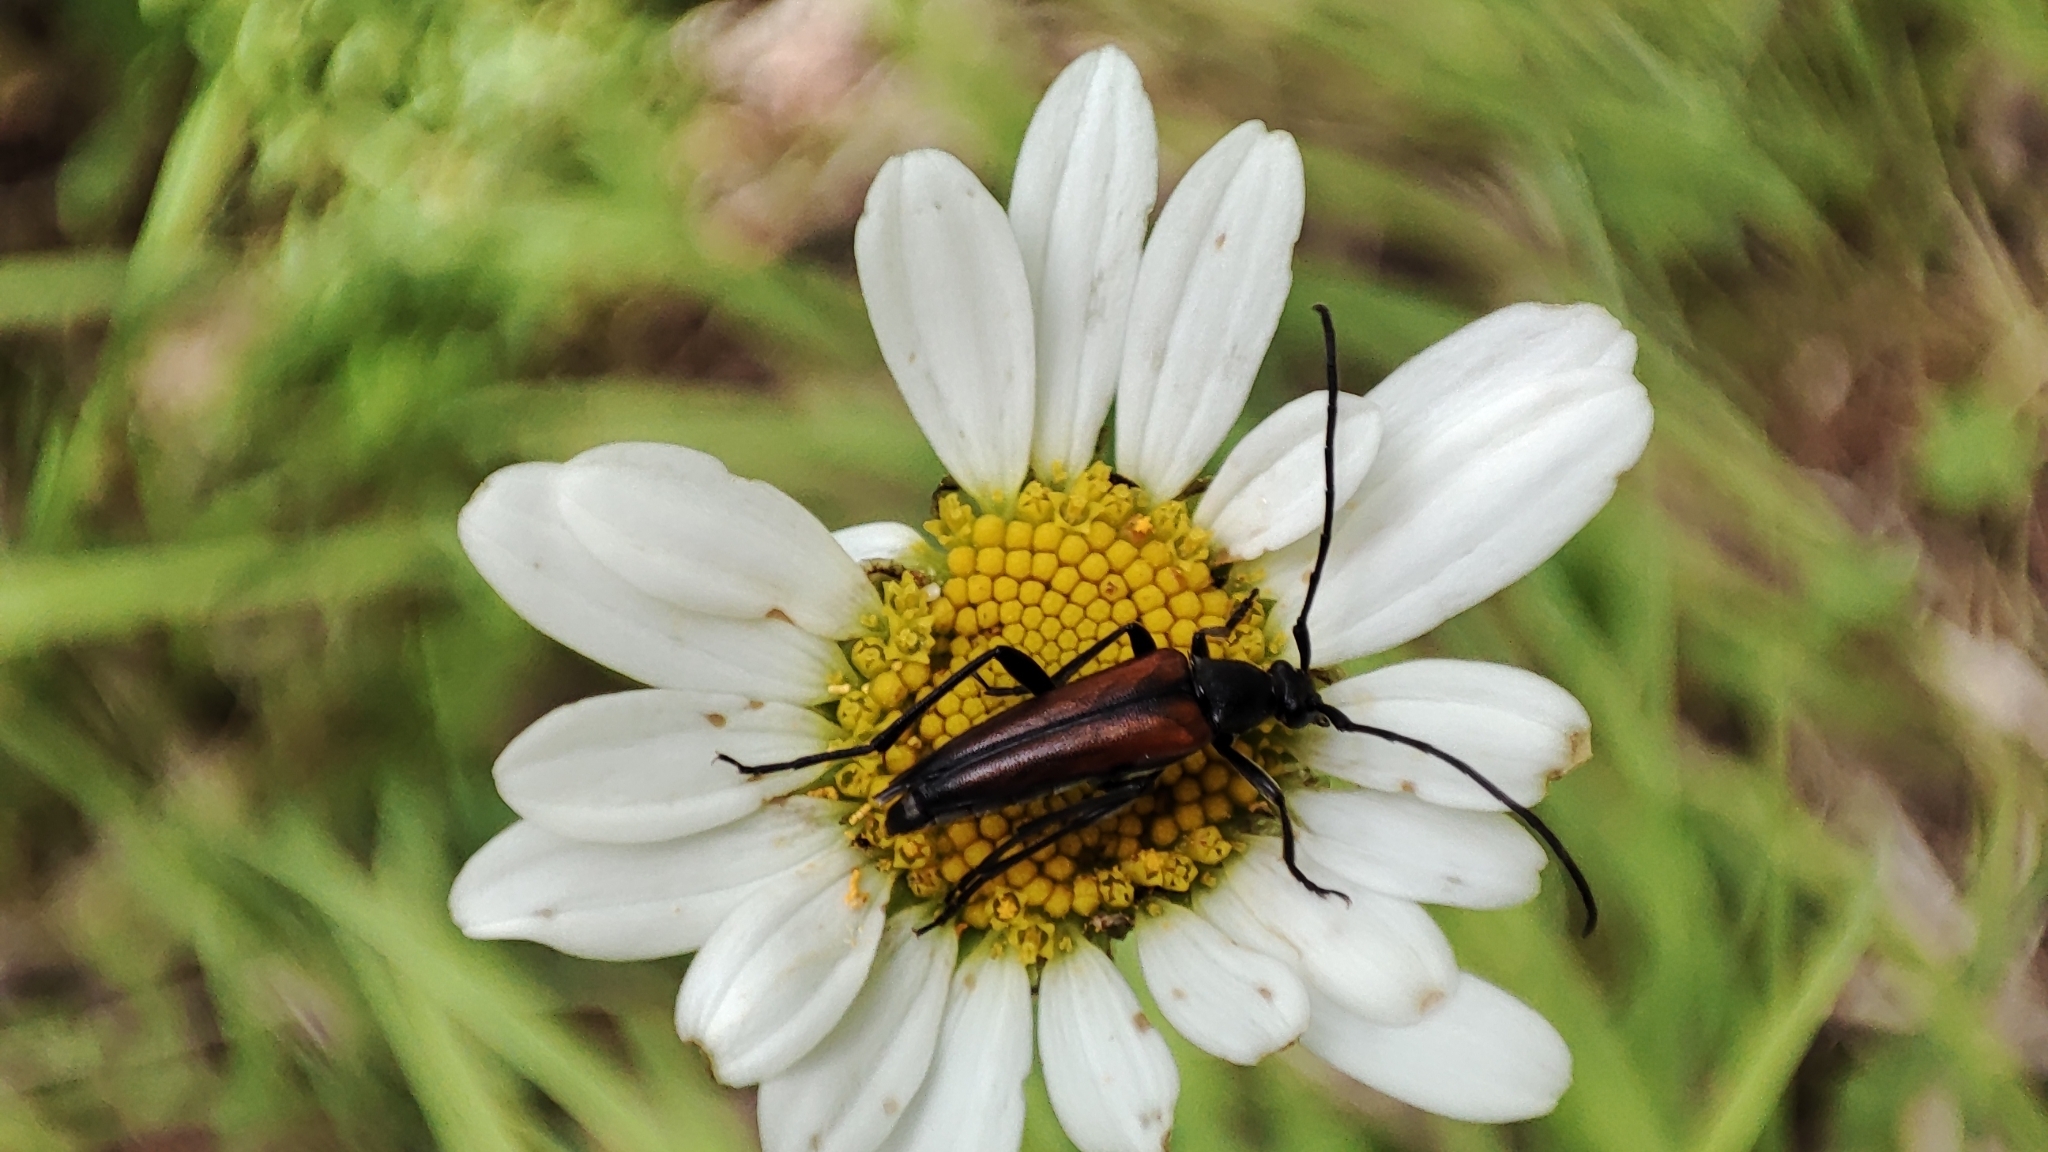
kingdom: Animalia
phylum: Arthropoda
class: Insecta
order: Coleoptera
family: Cerambycidae
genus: Stenurella
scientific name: Stenurella melanura
